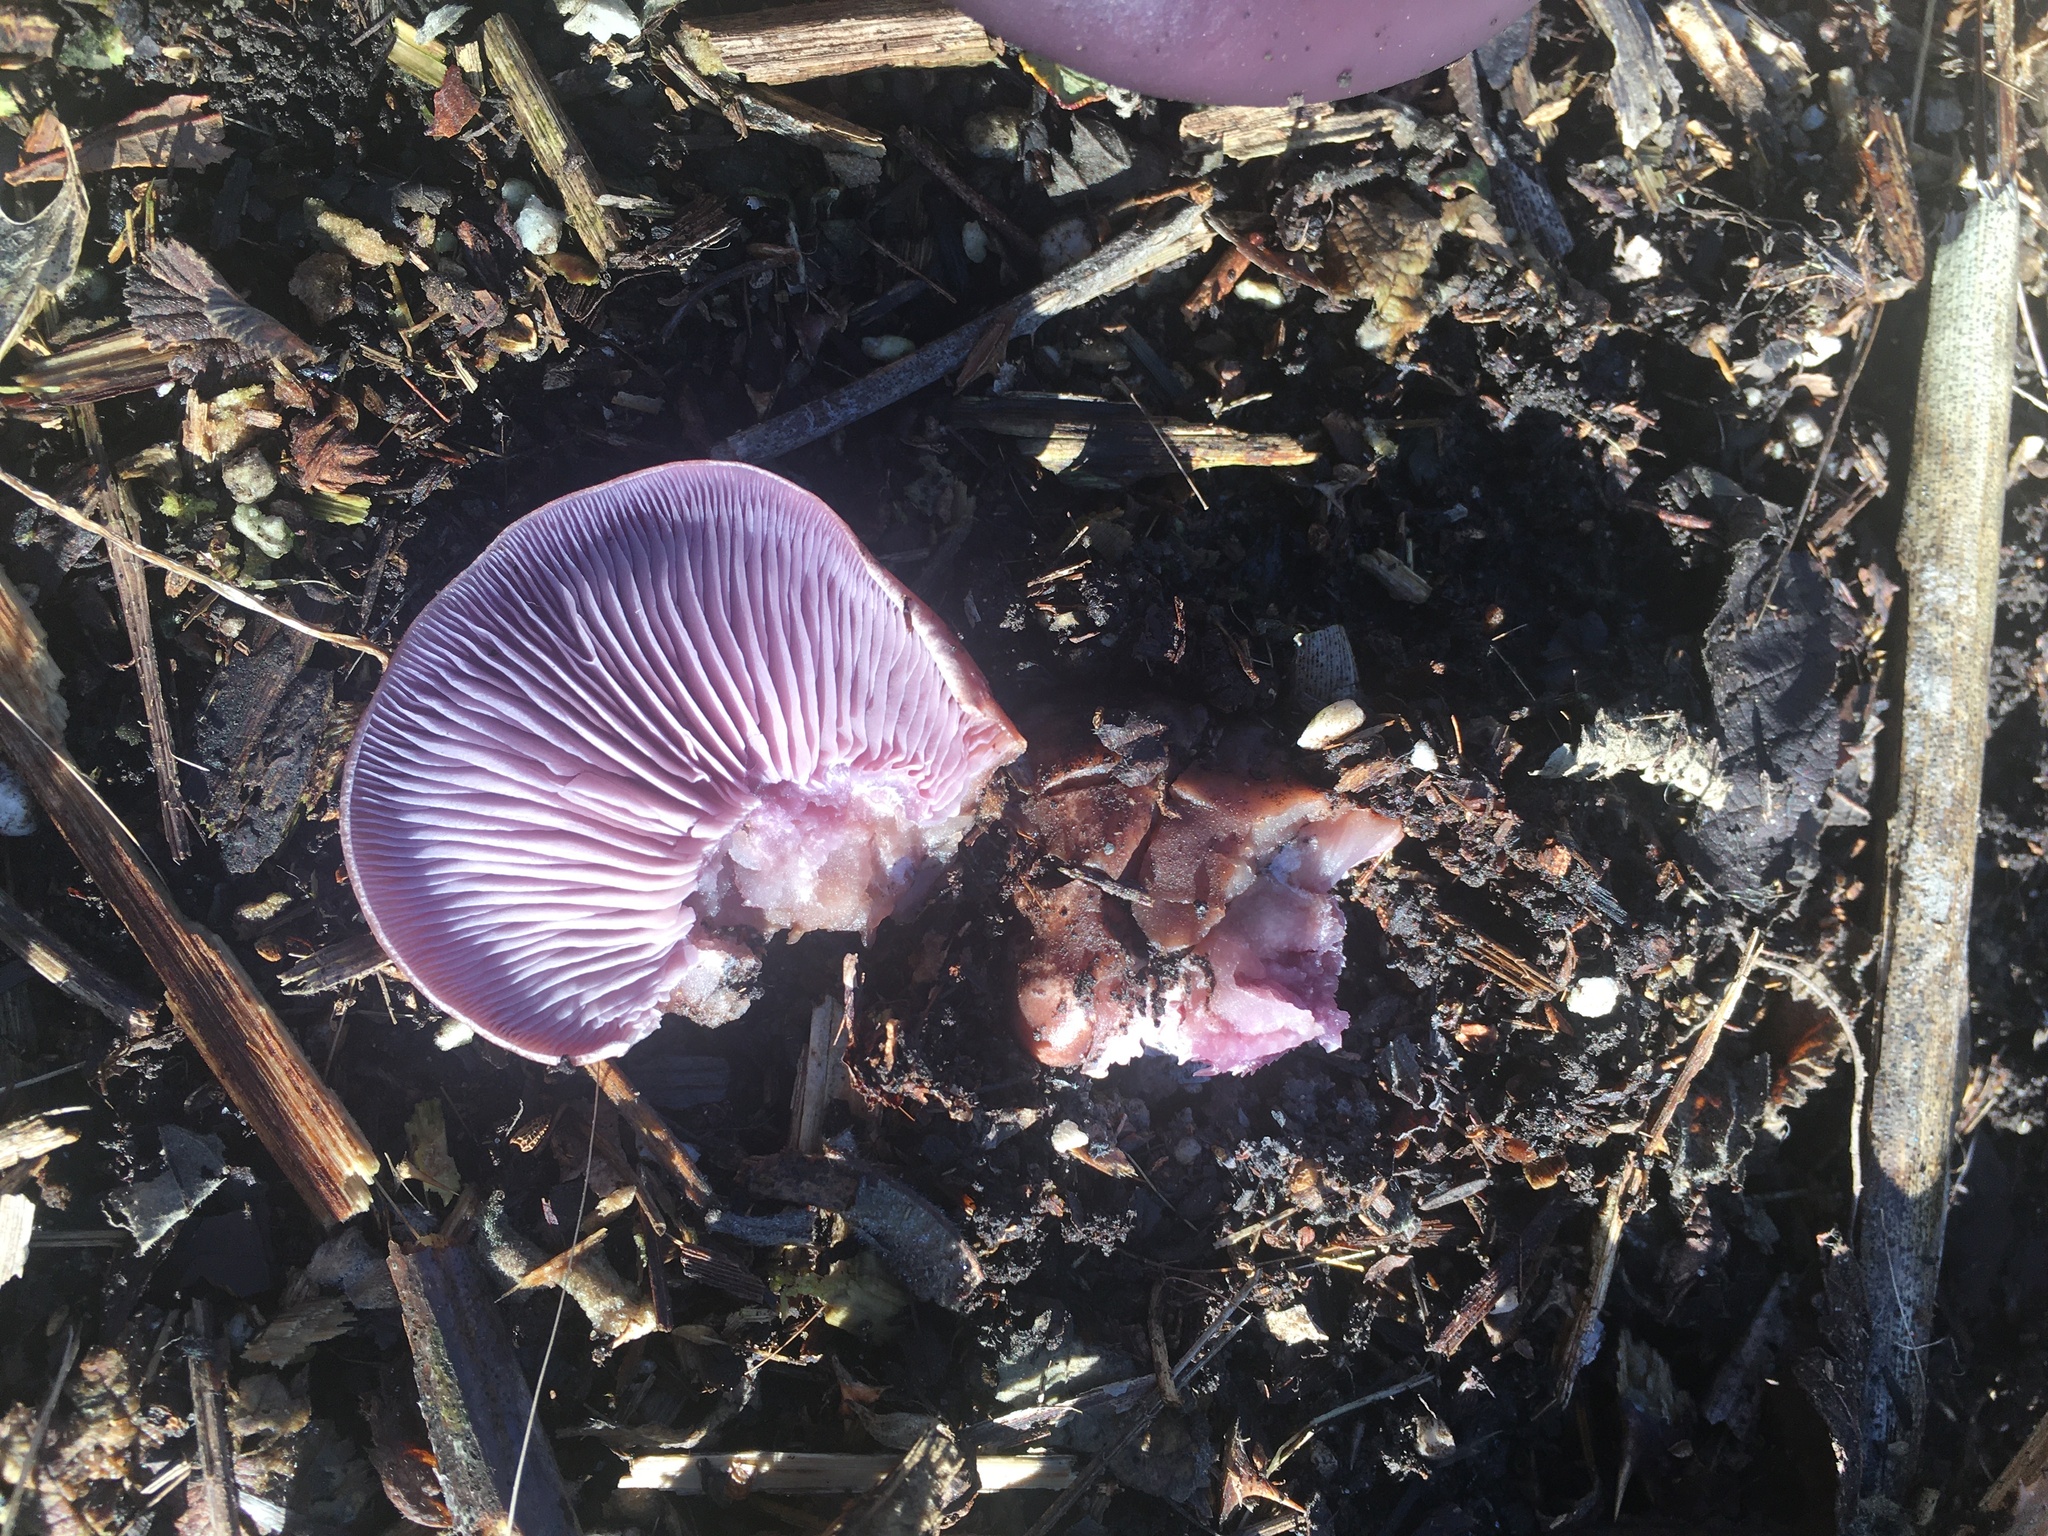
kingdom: Fungi
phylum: Basidiomycota
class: Agaricomycetes
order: Agaricales
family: Tricholomataceae
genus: Collybia
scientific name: Collybia
